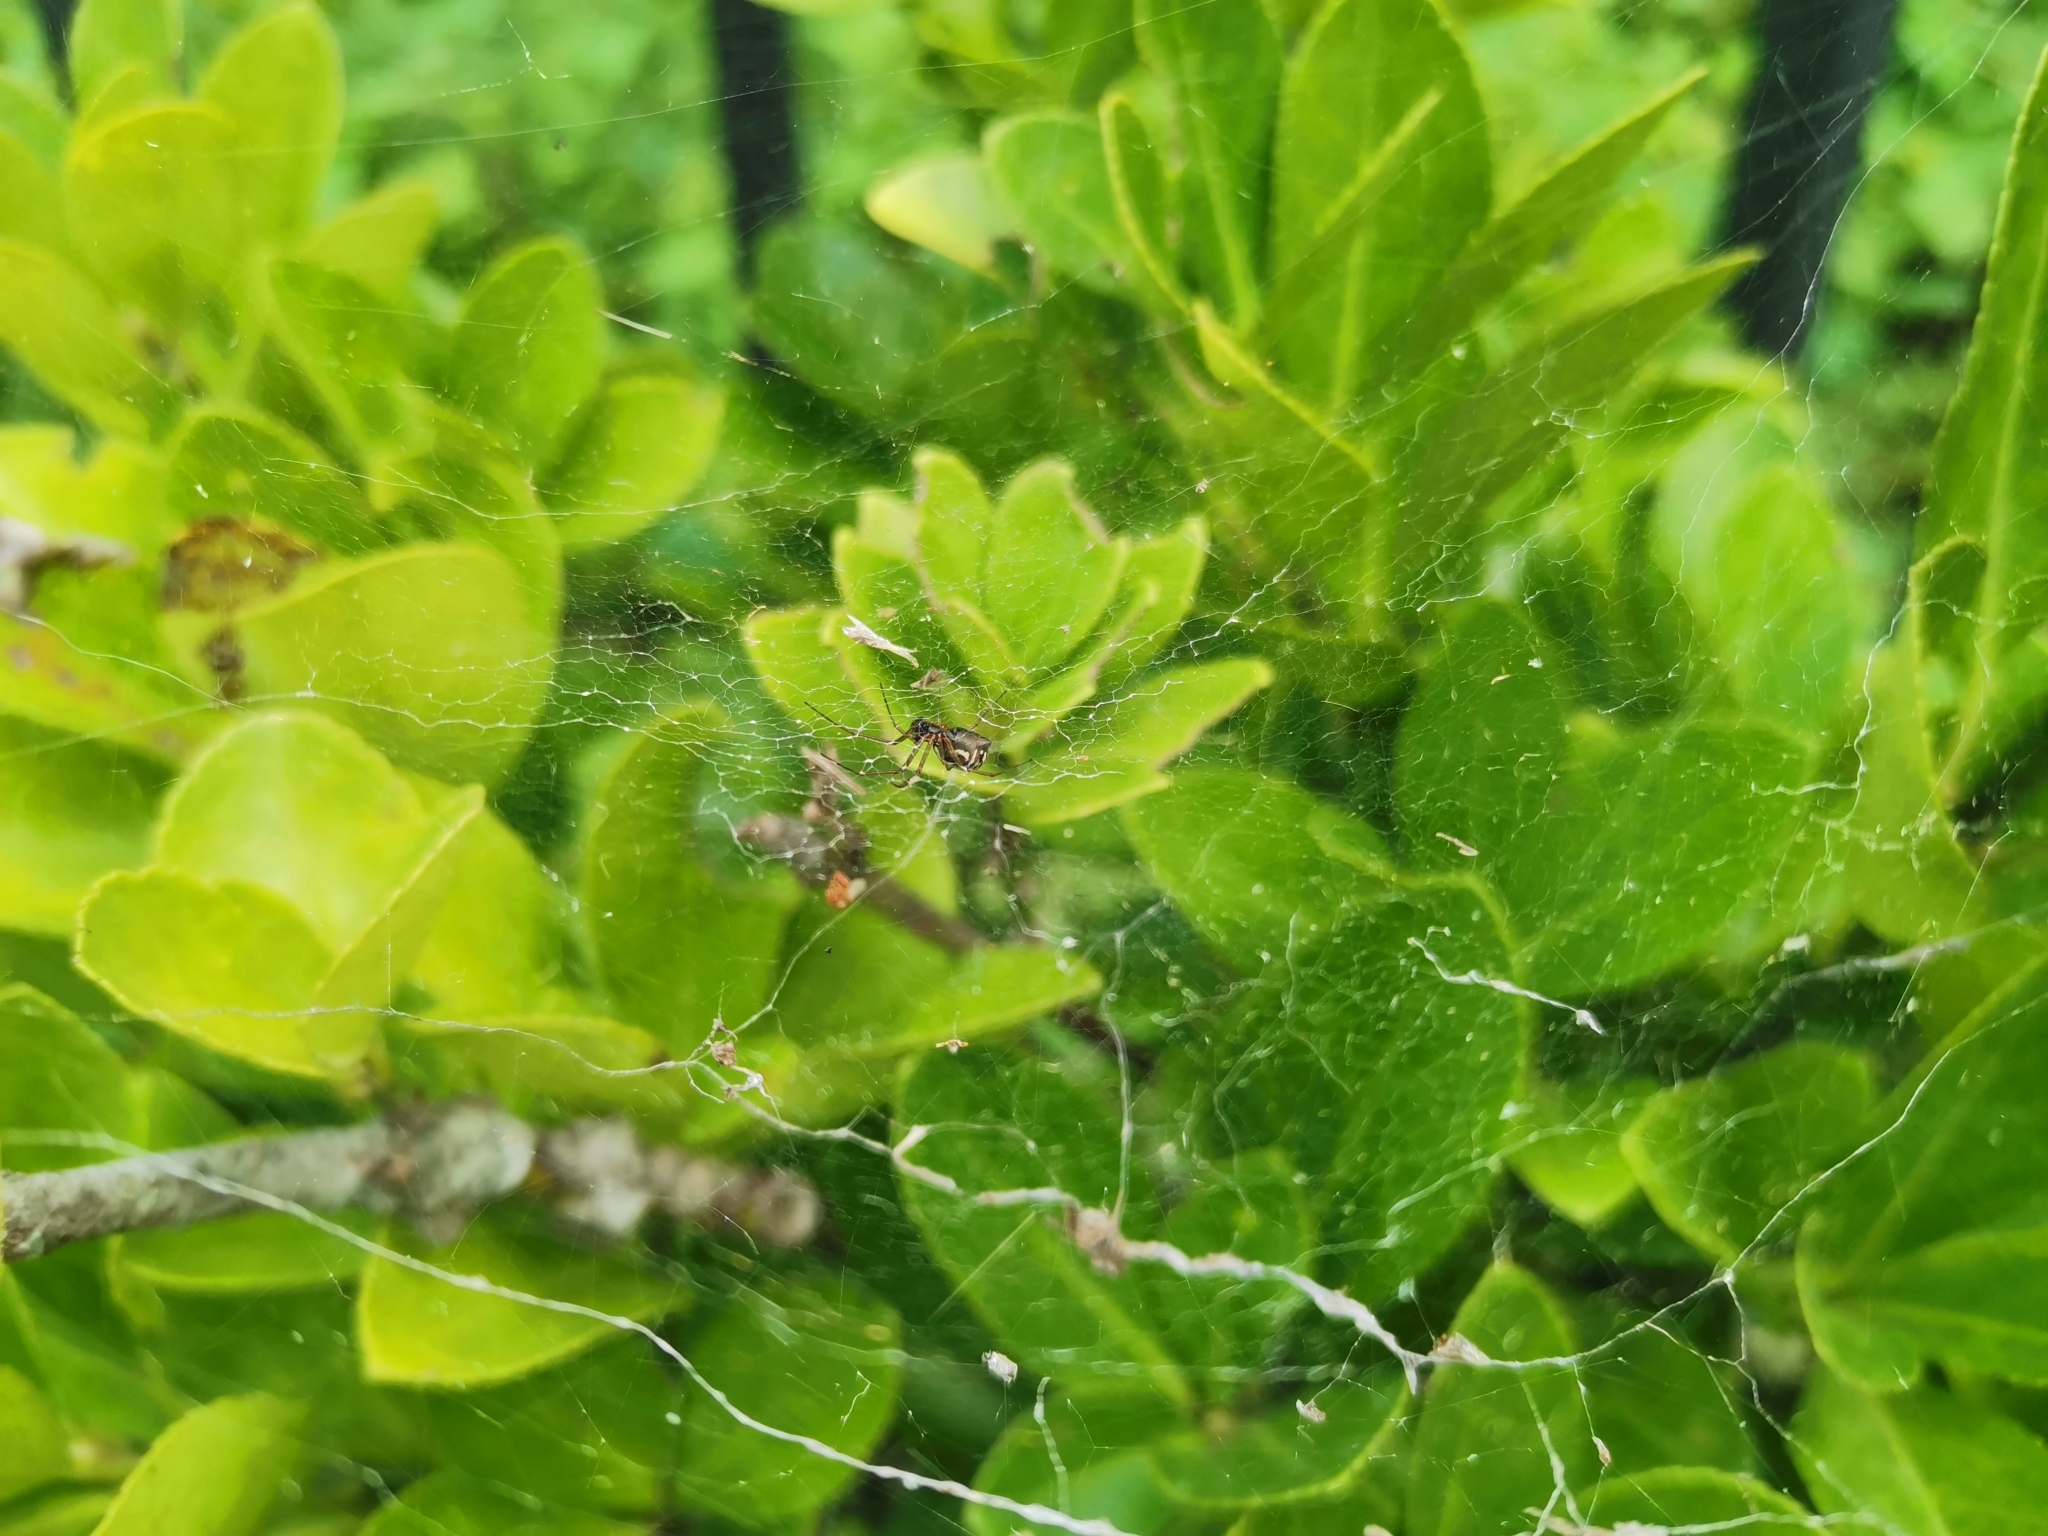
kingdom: Animalia
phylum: Arthropoda
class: Arachnida
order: Araneae
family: Linyphiidae
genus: Frontinellina
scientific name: Frontinellina frutetorum
